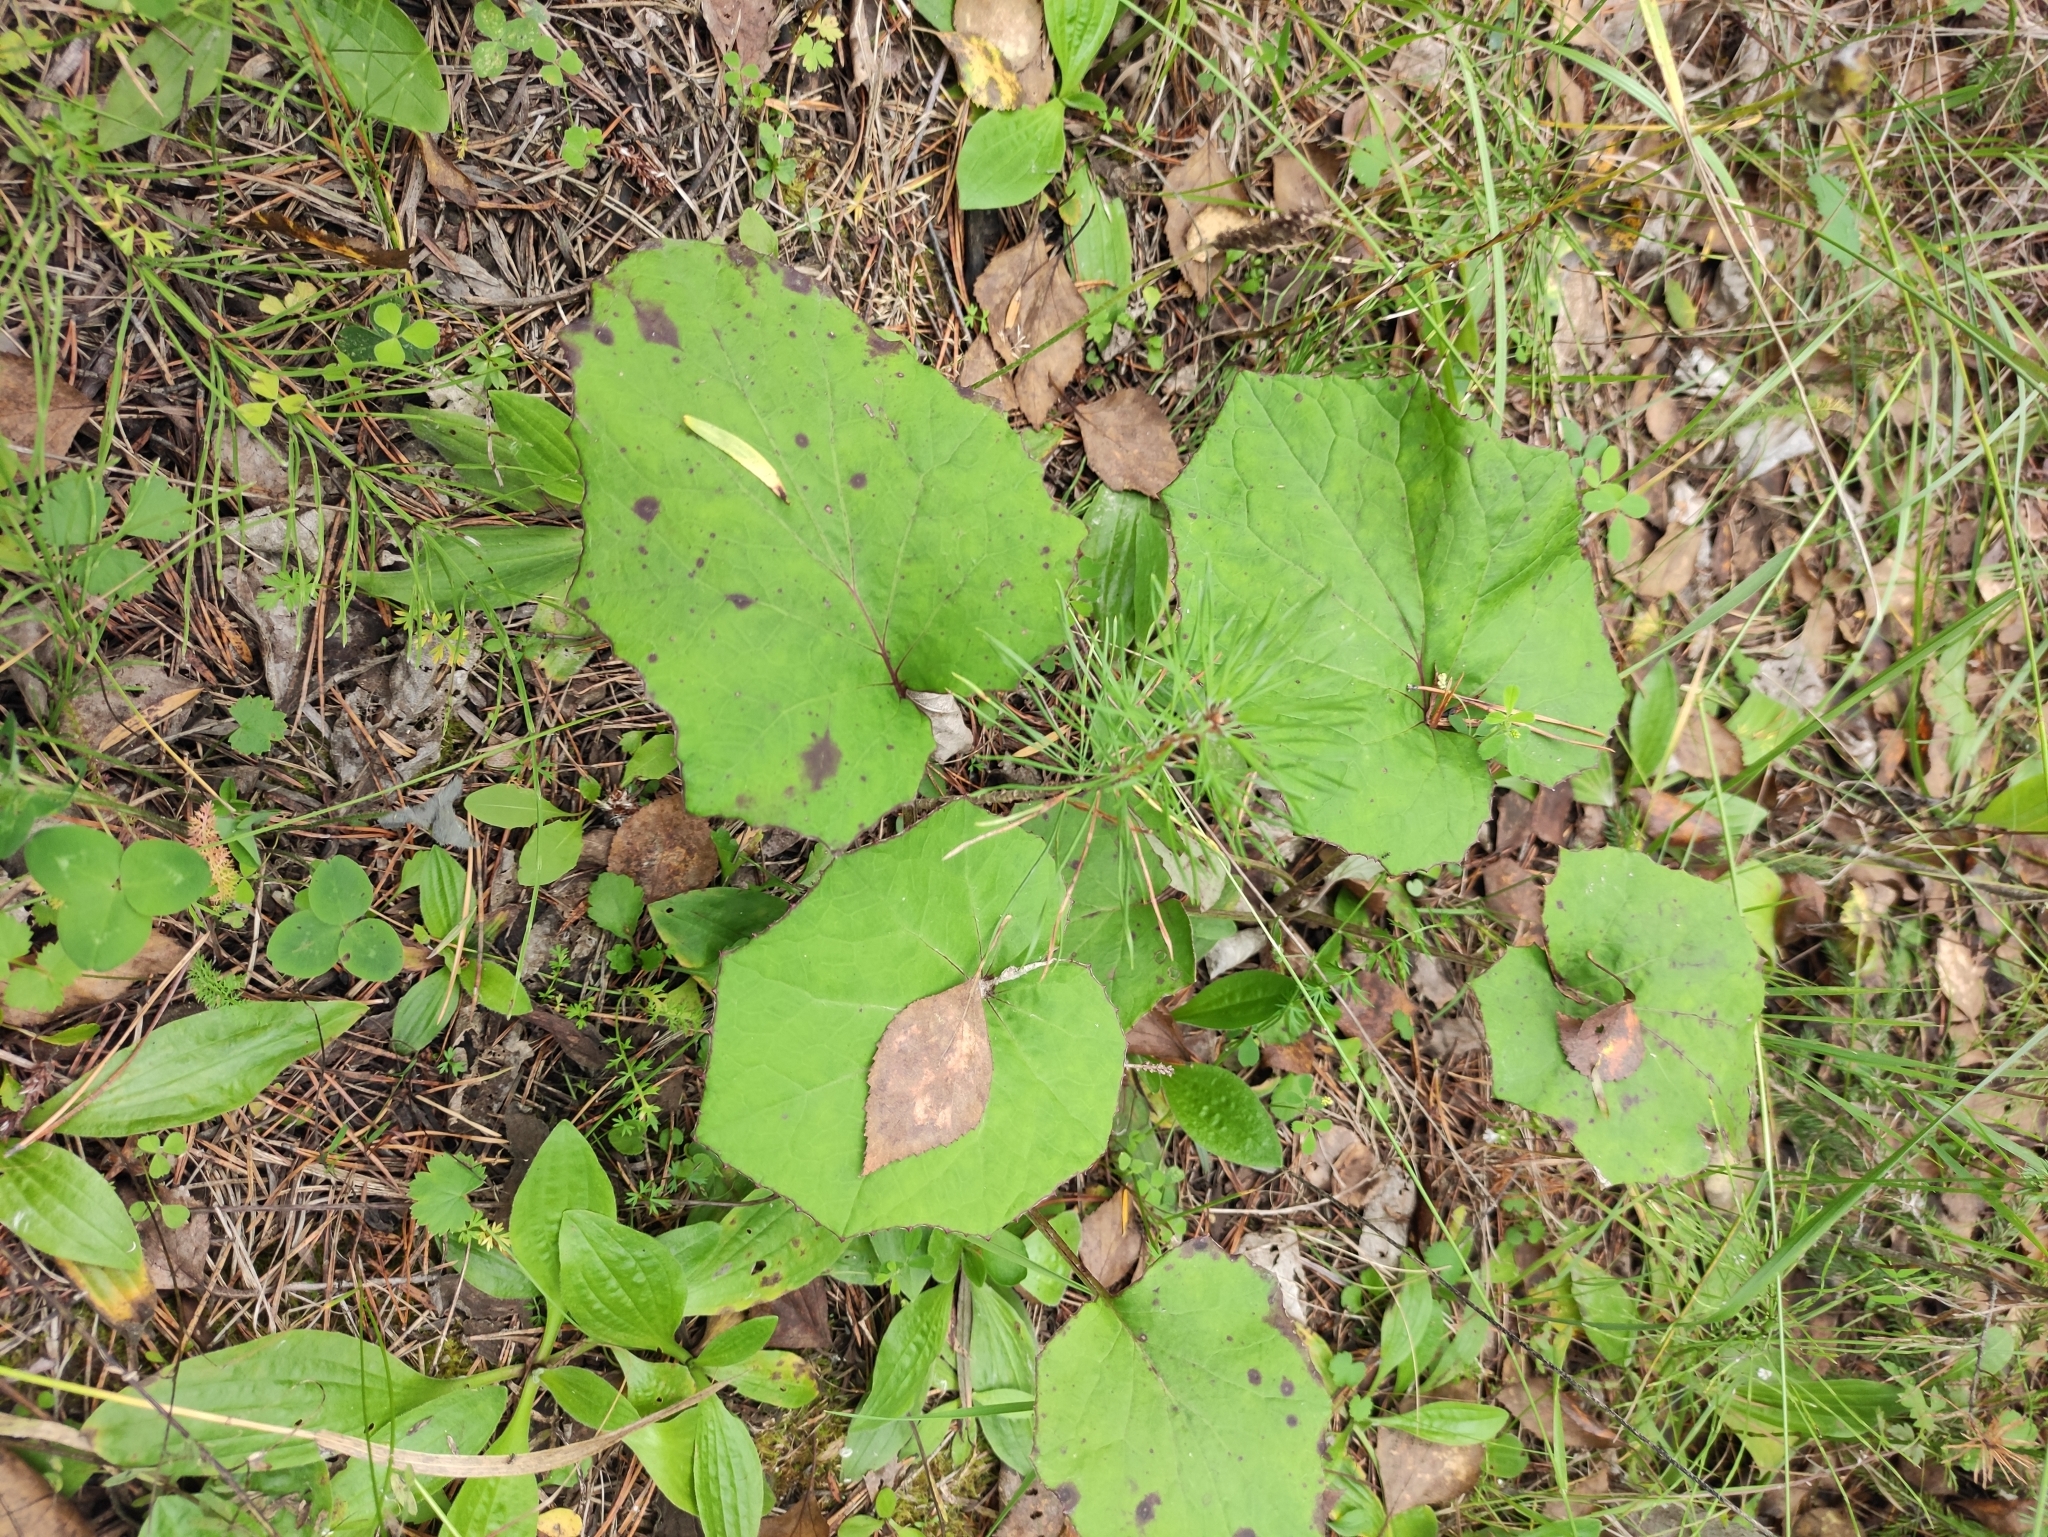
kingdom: Plantae
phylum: Tracheophyta
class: Magnoliopsida
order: Asterales
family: Asteraceae
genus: Tussilago
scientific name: Tussilago farfara
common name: Coltsfoot
